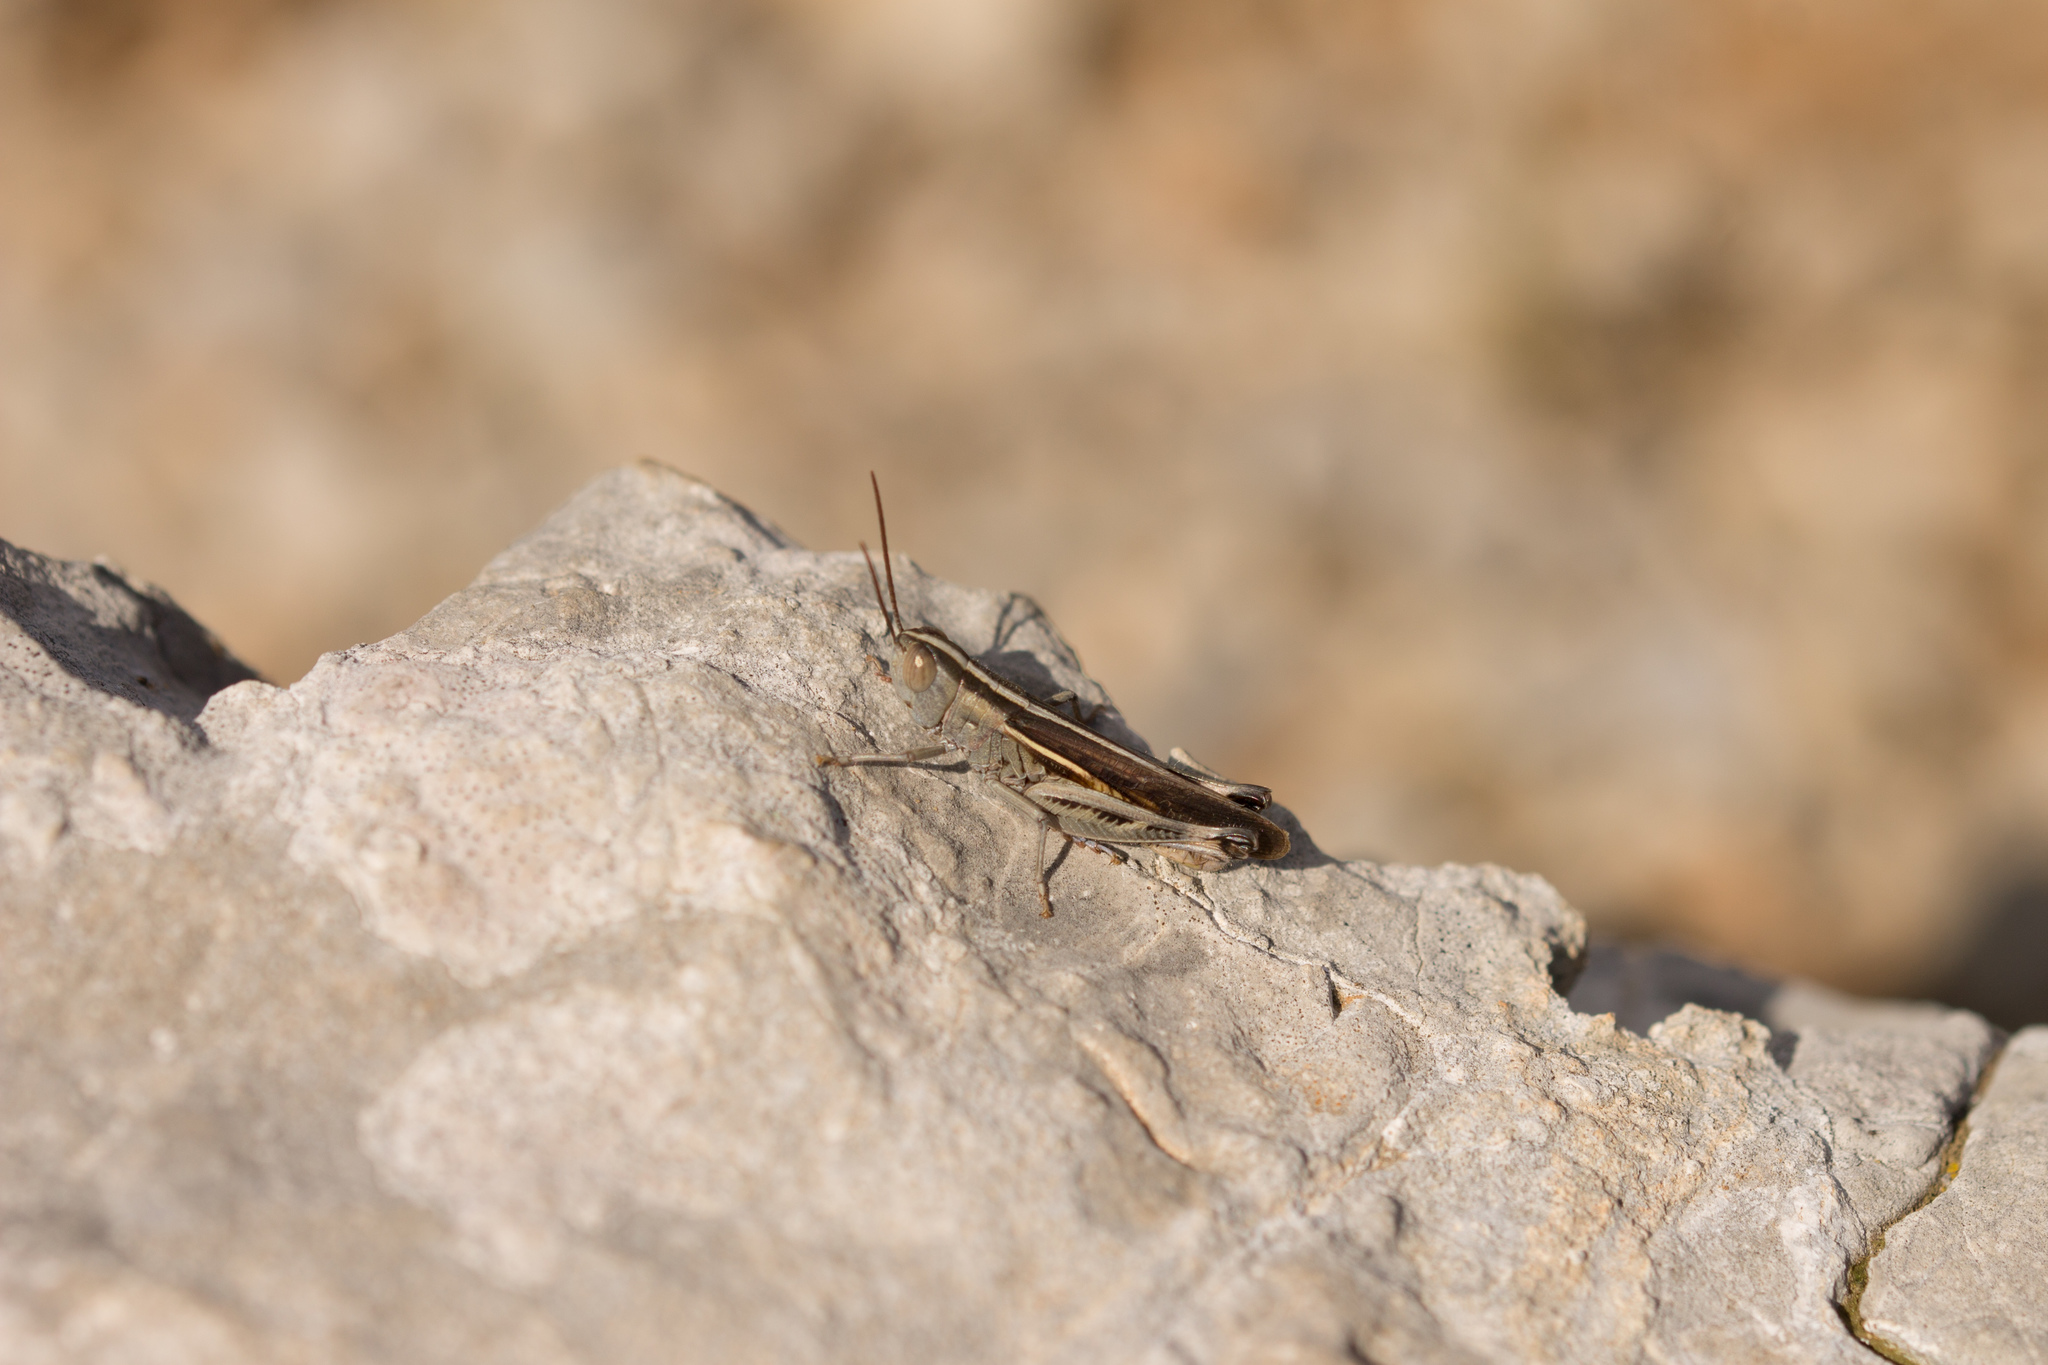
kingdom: Animalia
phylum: Arthropoda
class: Insecta
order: Orthoptera
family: Acrididae
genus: Ramburiella
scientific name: Ramburiella hispanica
